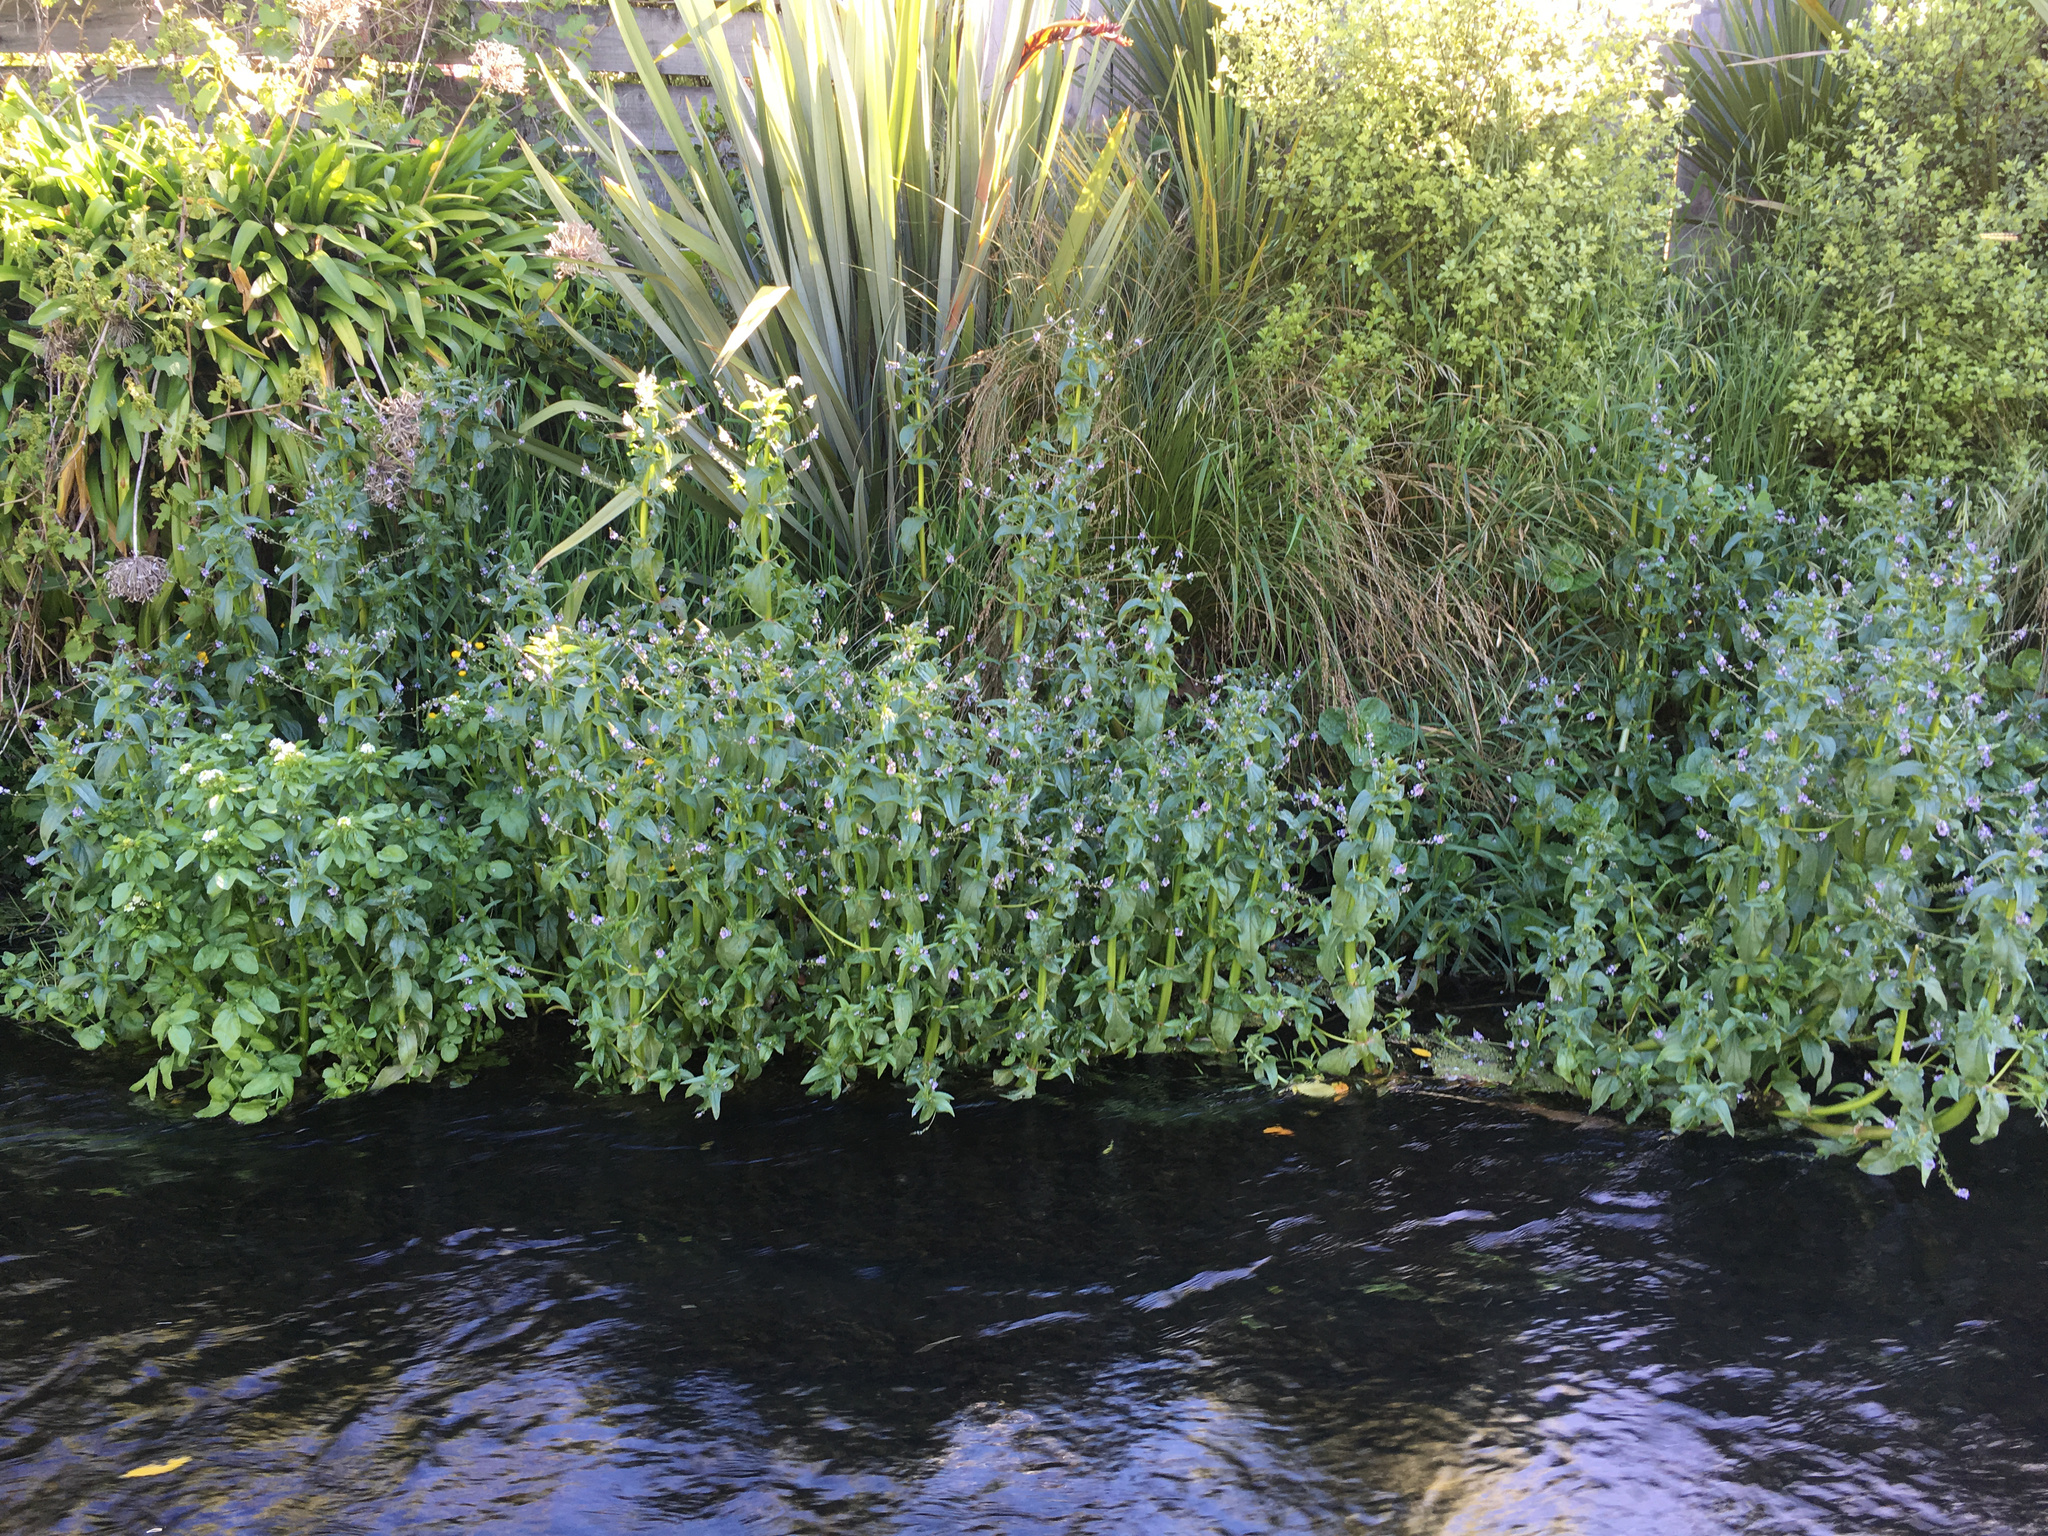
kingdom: Plantae
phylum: Tracheophyta
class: Magnoliopsida
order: Lamiales
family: Plantaginaceae
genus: Veronica
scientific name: Veronica anagallis-aquatica
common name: Water speedwell
